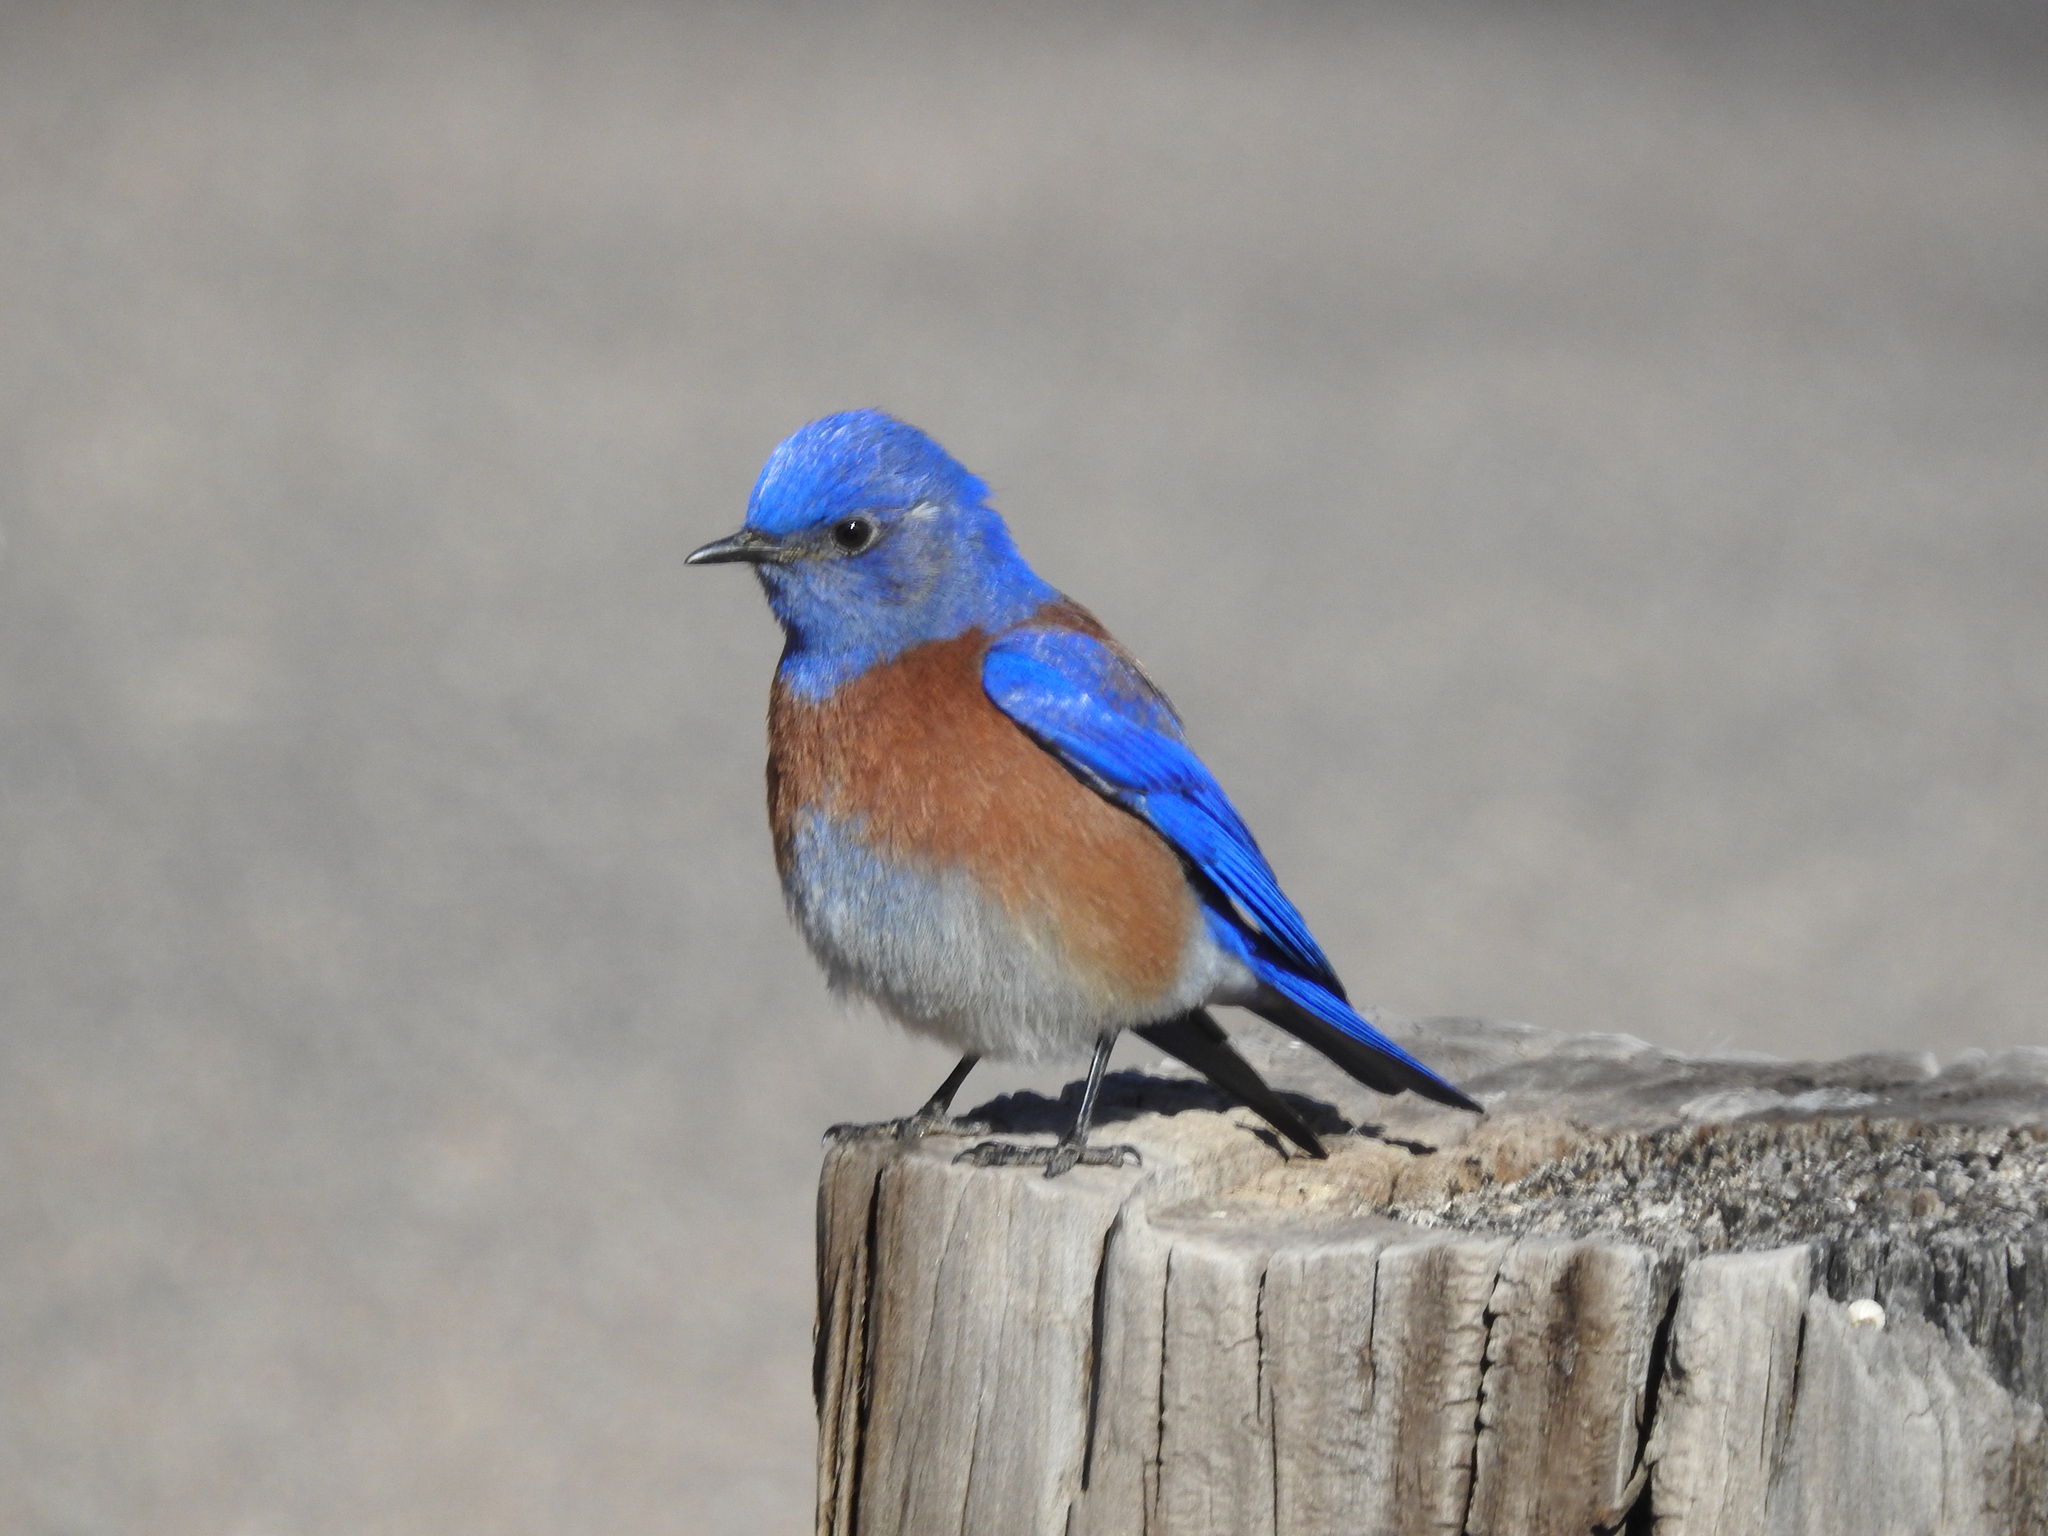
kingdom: Animalia
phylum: Chordata
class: Aves
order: Passeriformes
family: Turdidae
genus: Sialia
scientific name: Sialia mexicana
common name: Western bluebird
